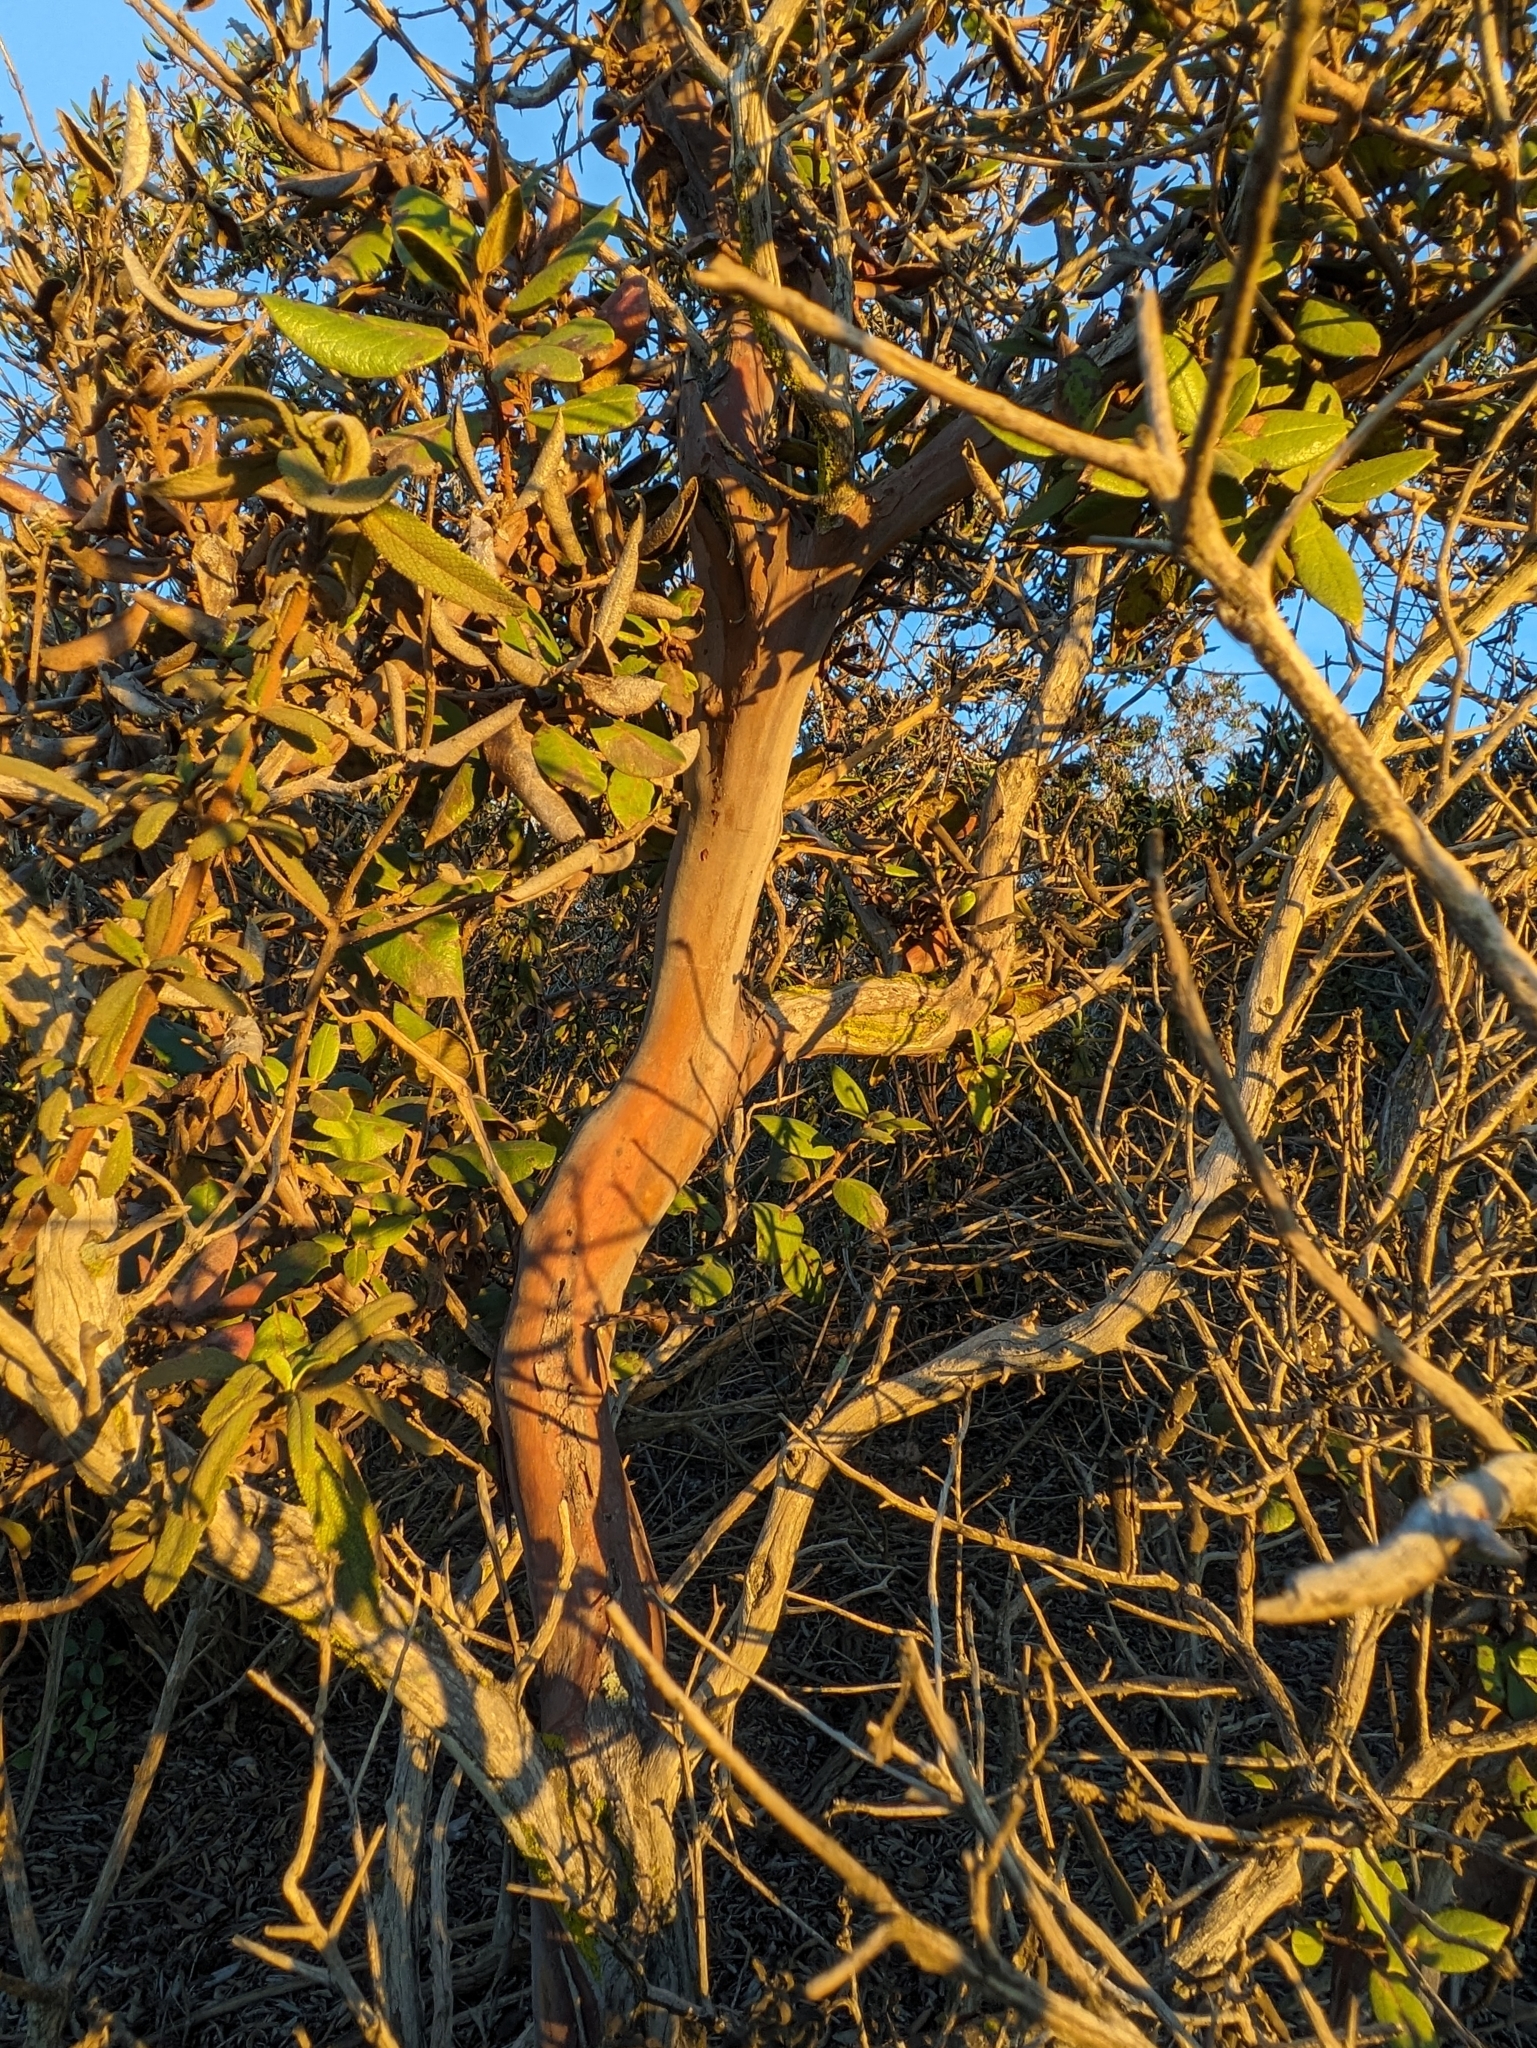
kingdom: Plantae
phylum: Tracheophyta
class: Magnoliopsida
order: Ericales
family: Ericaceae
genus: Arctostaphylos
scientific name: Arctostaphylos bicolor
